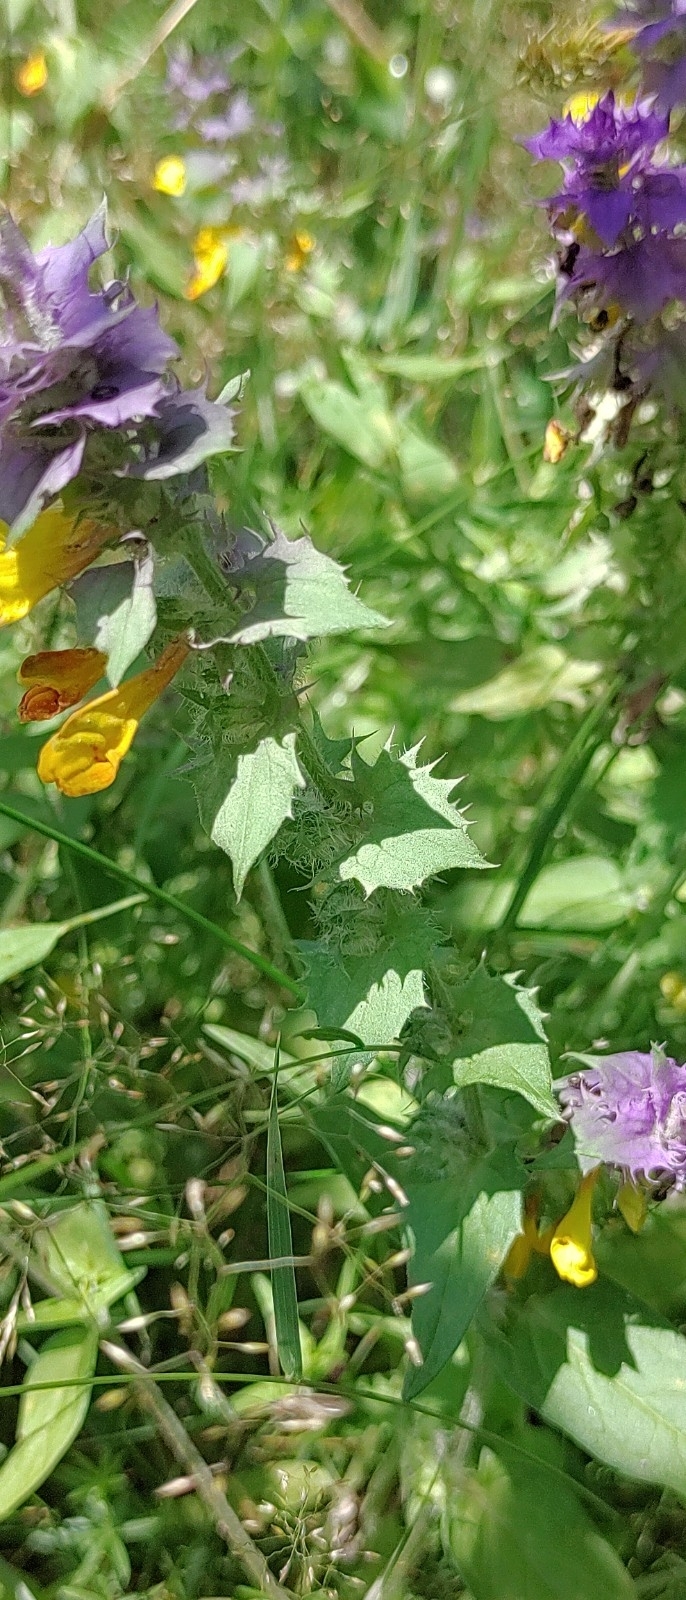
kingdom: Plantae
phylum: Tracheophyta
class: Magnoliopsida
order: Lamiales
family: Orobanchaceae
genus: Melampyrum
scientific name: Melampyrum nemorosum
